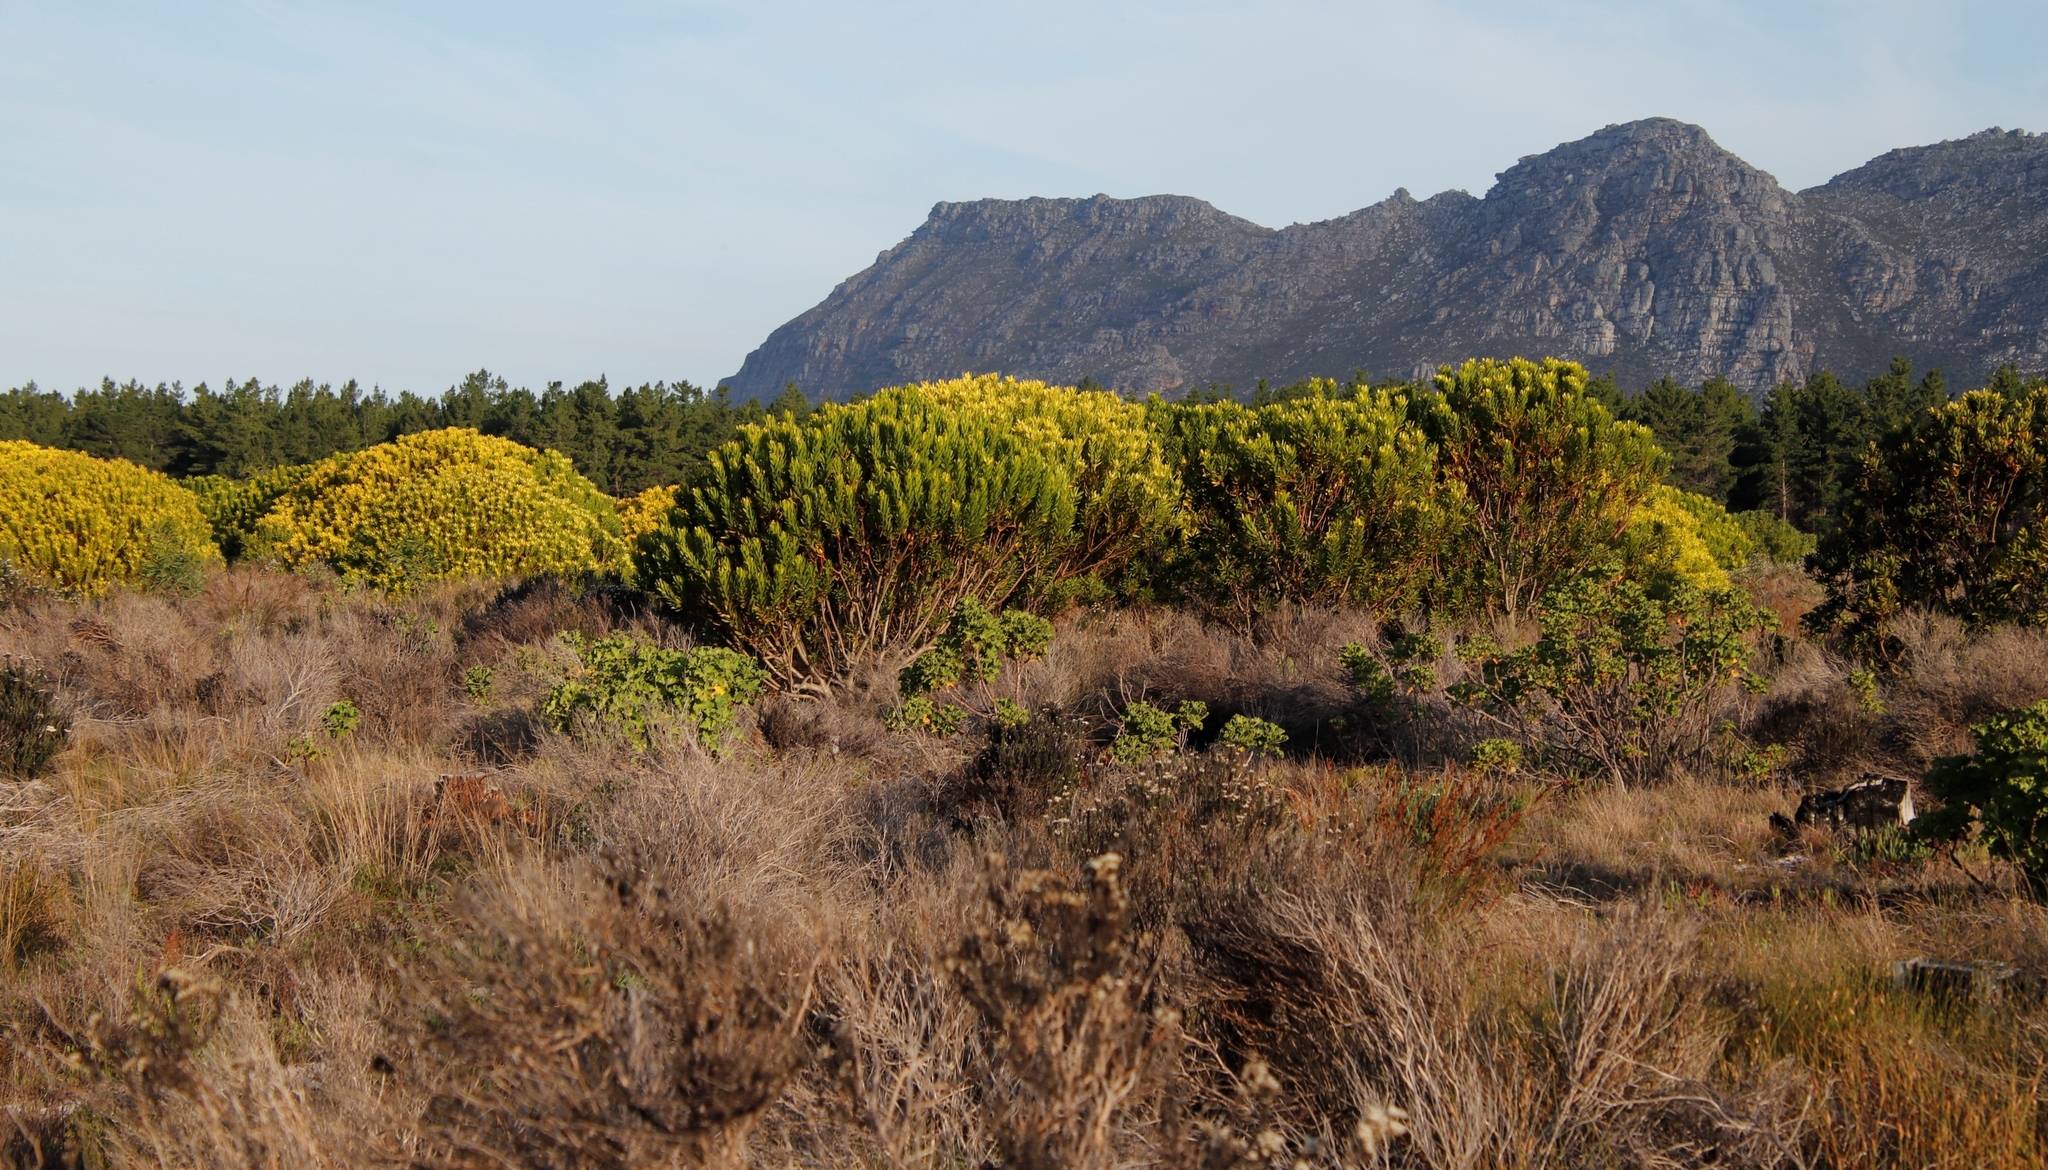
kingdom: Plantae
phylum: Tracheophyta
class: Magnoliopsida
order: Proteales
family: Proteaceae
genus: Leucadendron
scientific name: Leucadendron laureolum
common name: Golden sunshinebush
